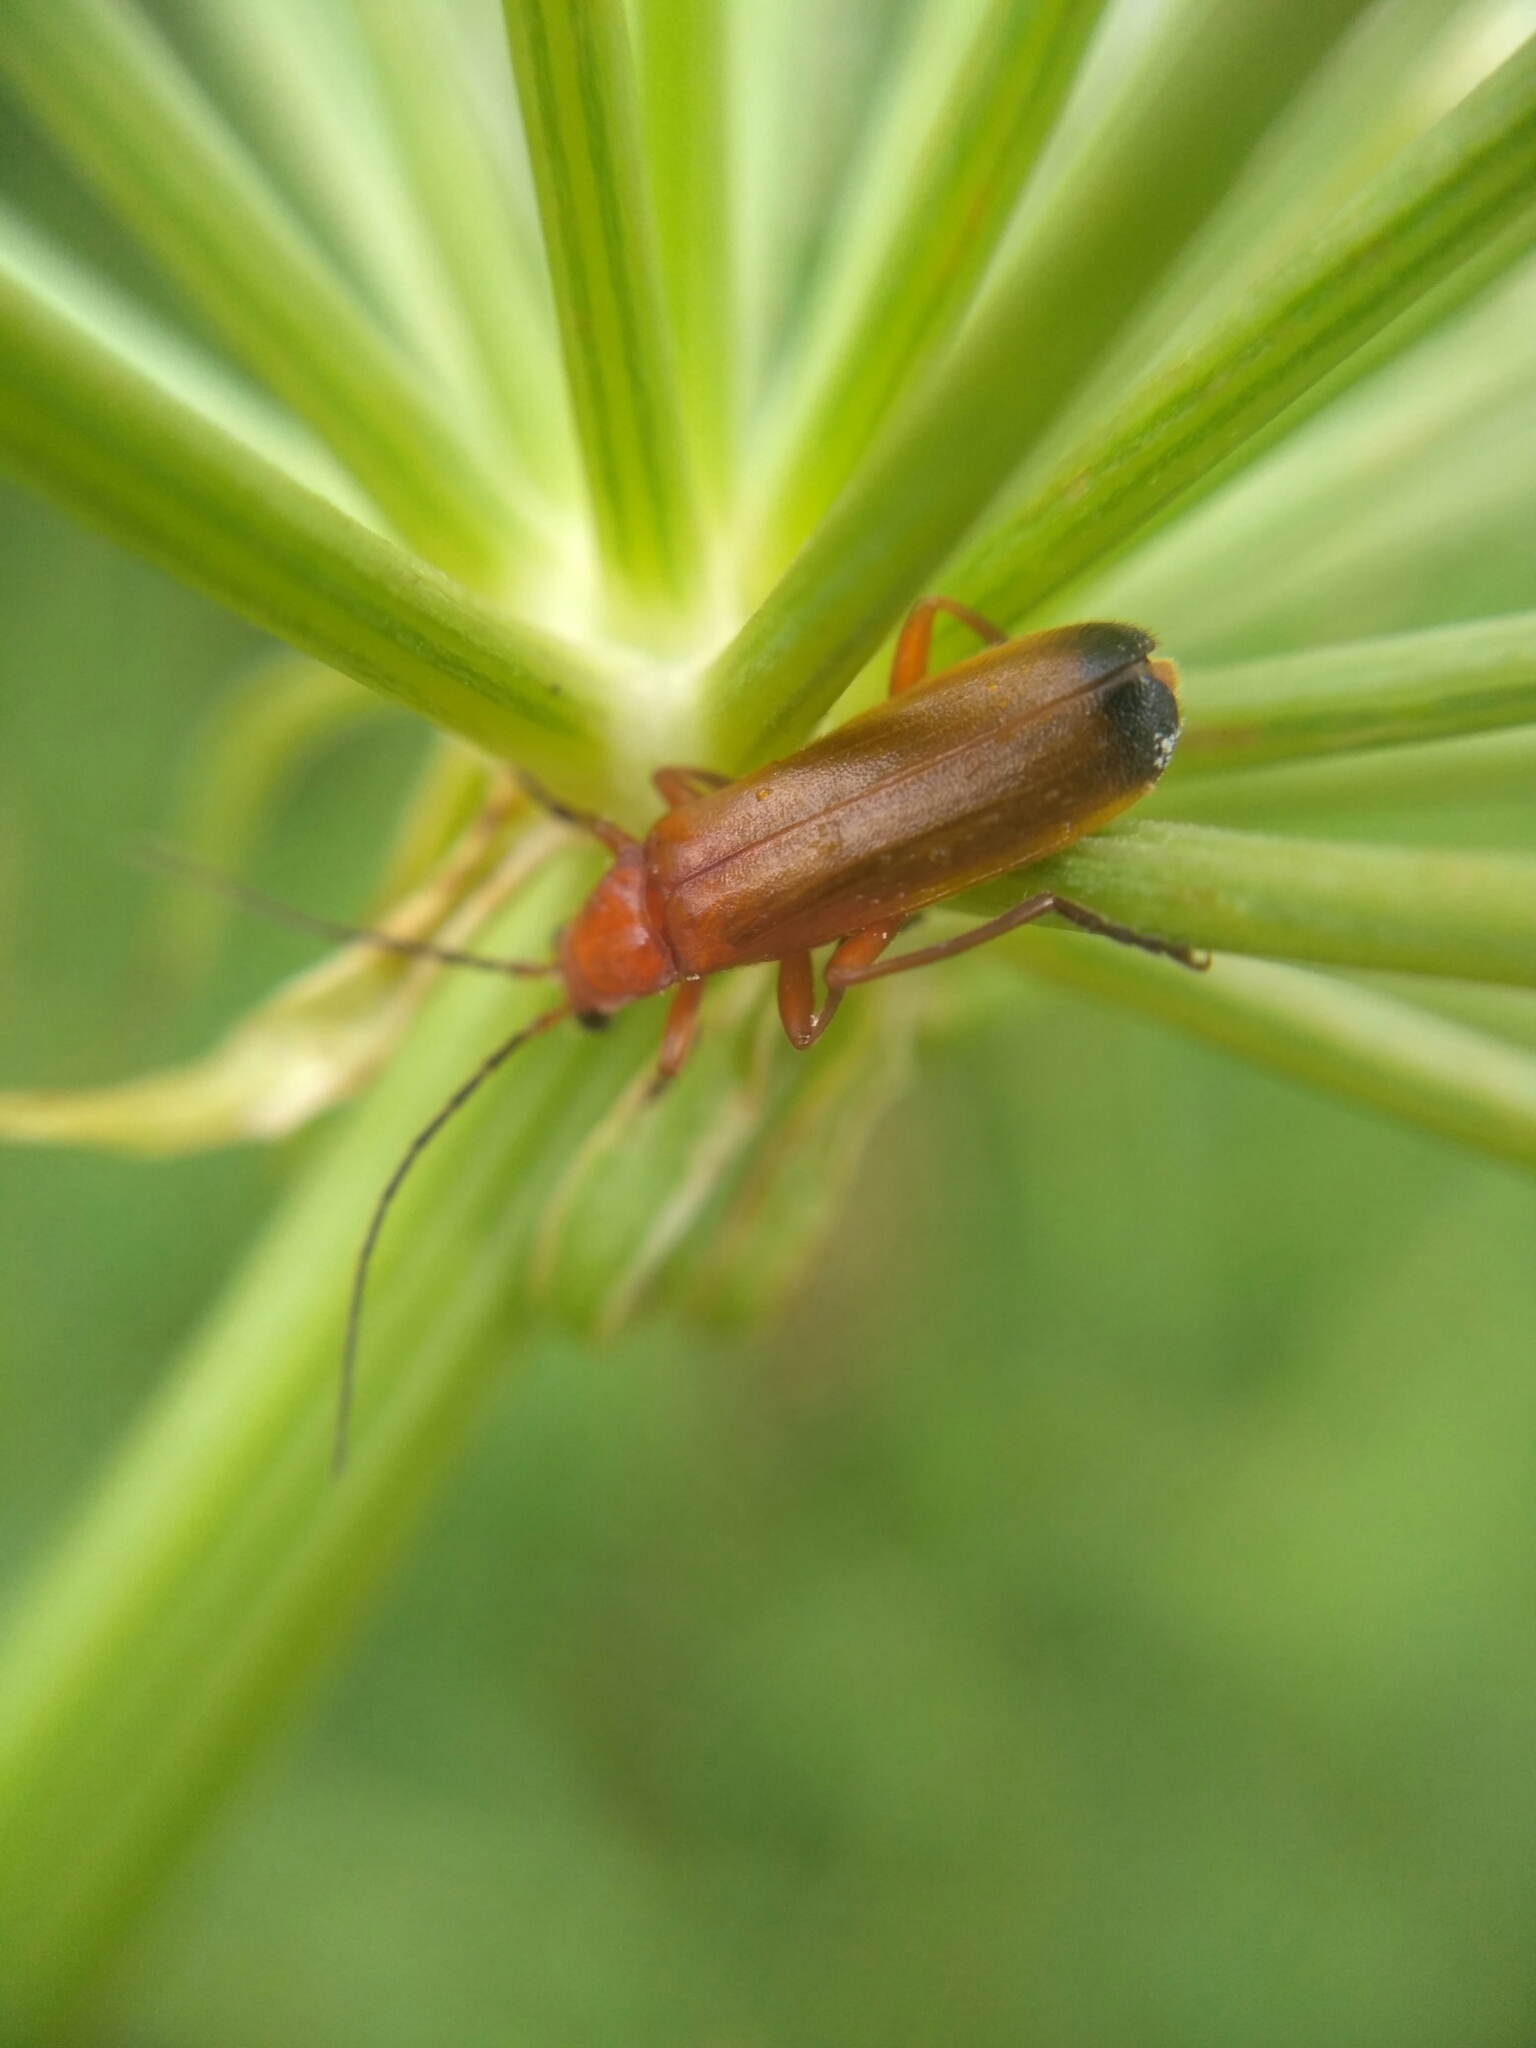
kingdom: Animalia
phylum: Arthropoda
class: Insecta
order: Coleoptera
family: Cantharidae
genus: Rhagonycha
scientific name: Rhagonycha fulva
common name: Common red soldier beetle
